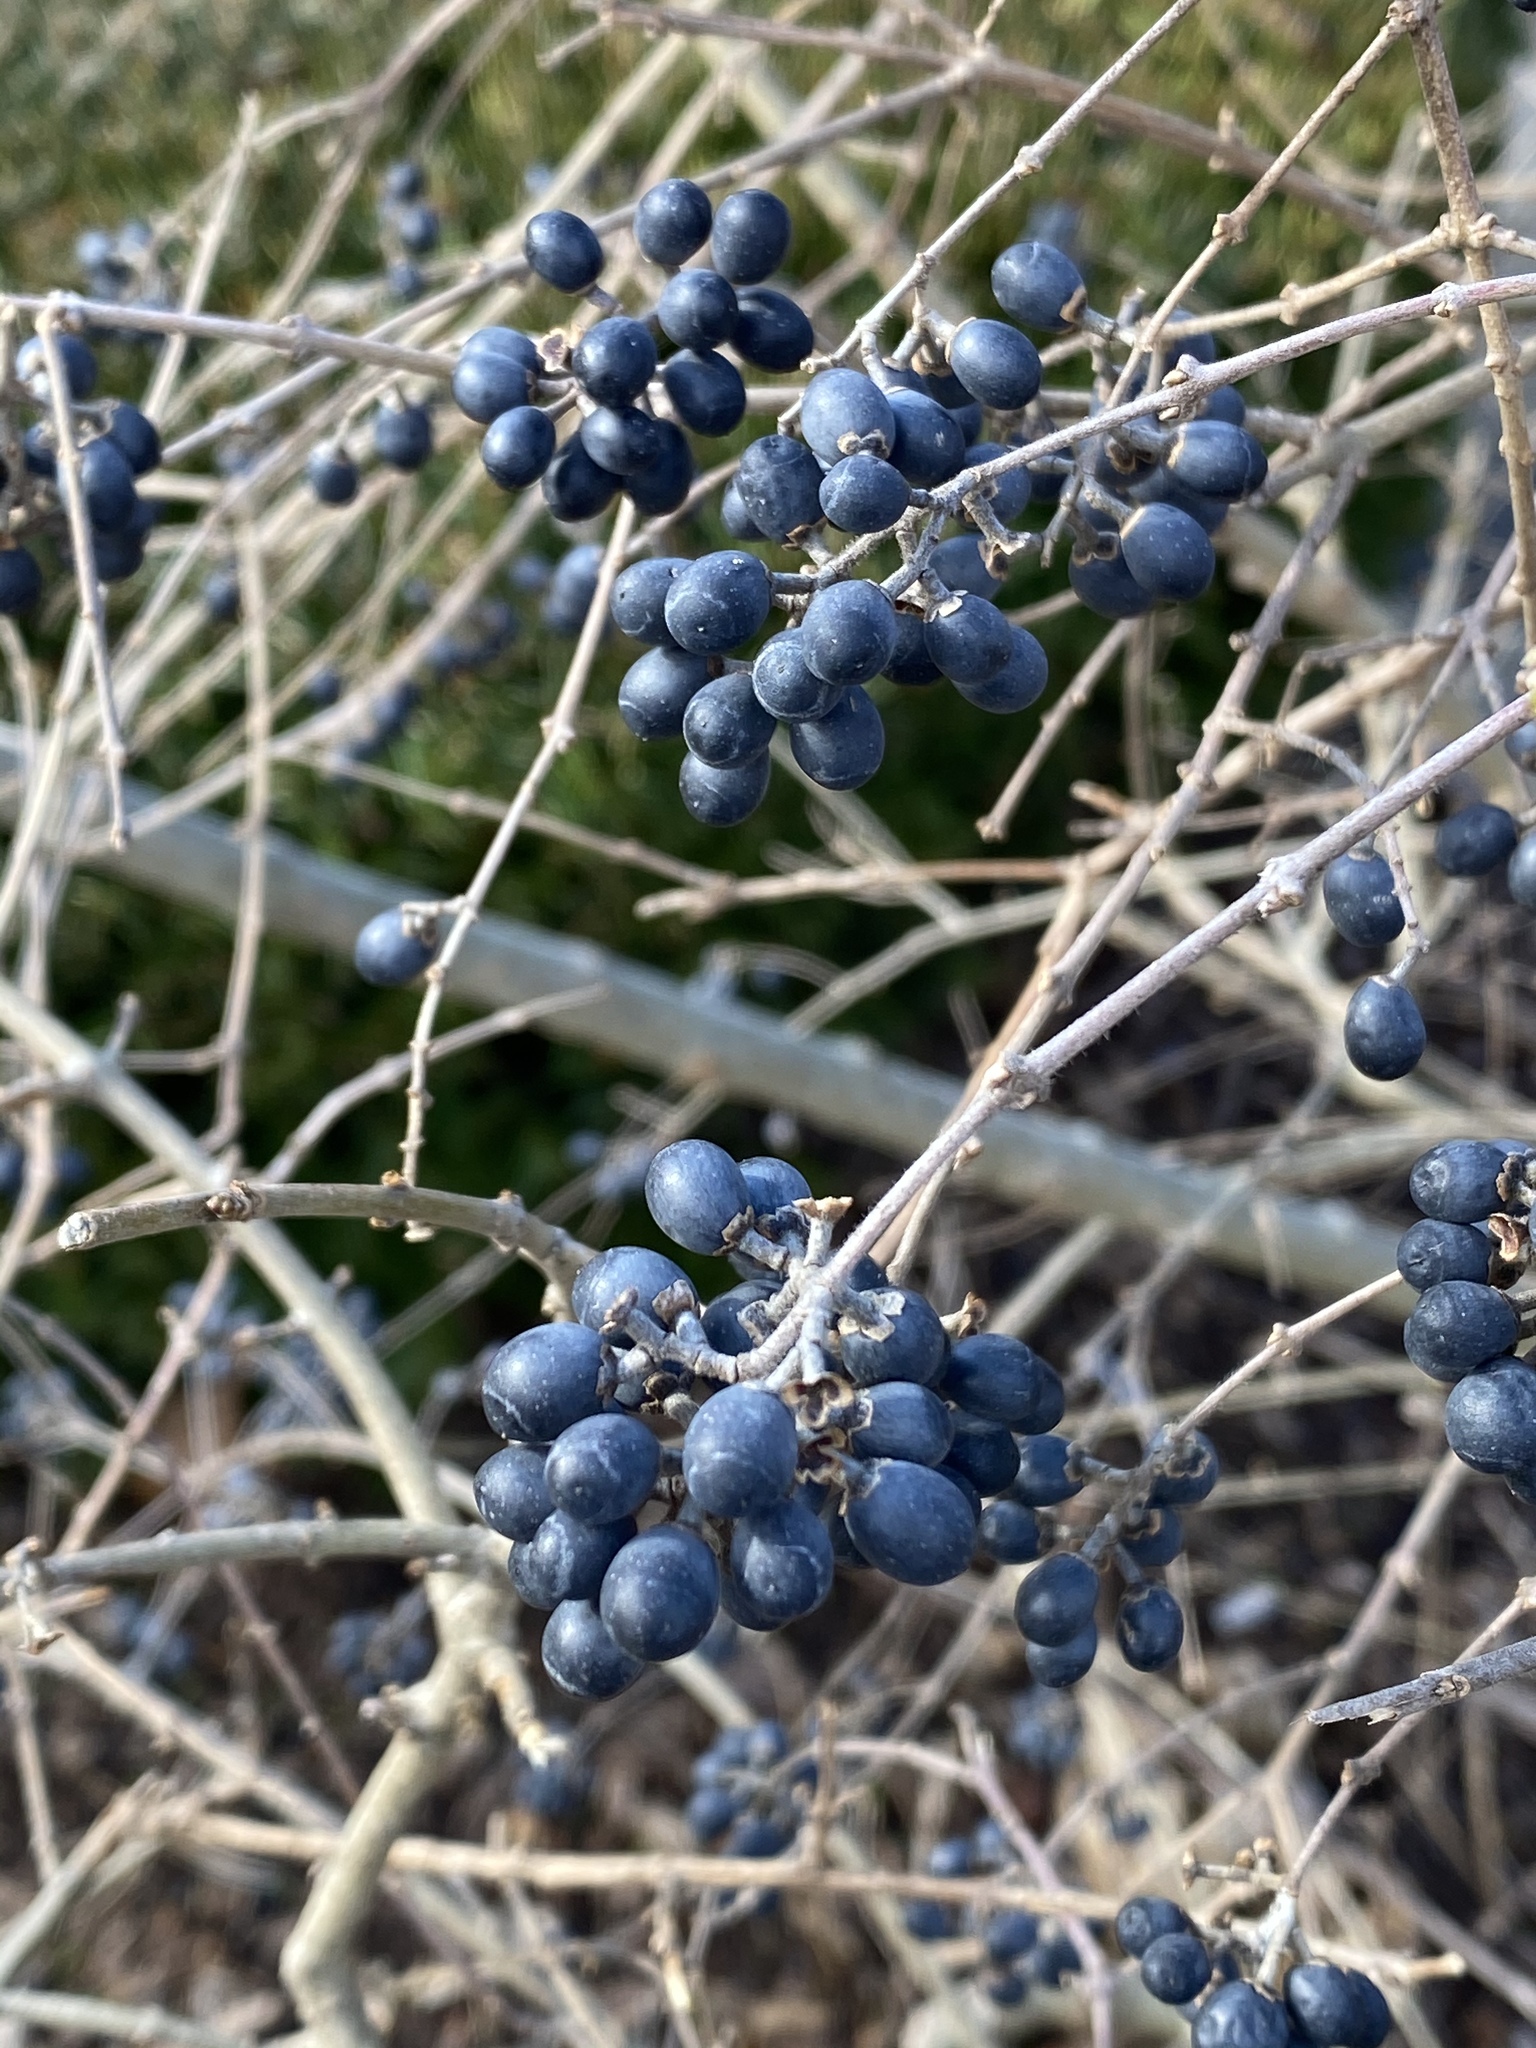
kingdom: Plantae
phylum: Tracheophyta
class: Magnoliopsida
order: Lamiales
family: Oleaceae
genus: Ligustrum
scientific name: Ligustrum obtusifolium
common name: Border privet
